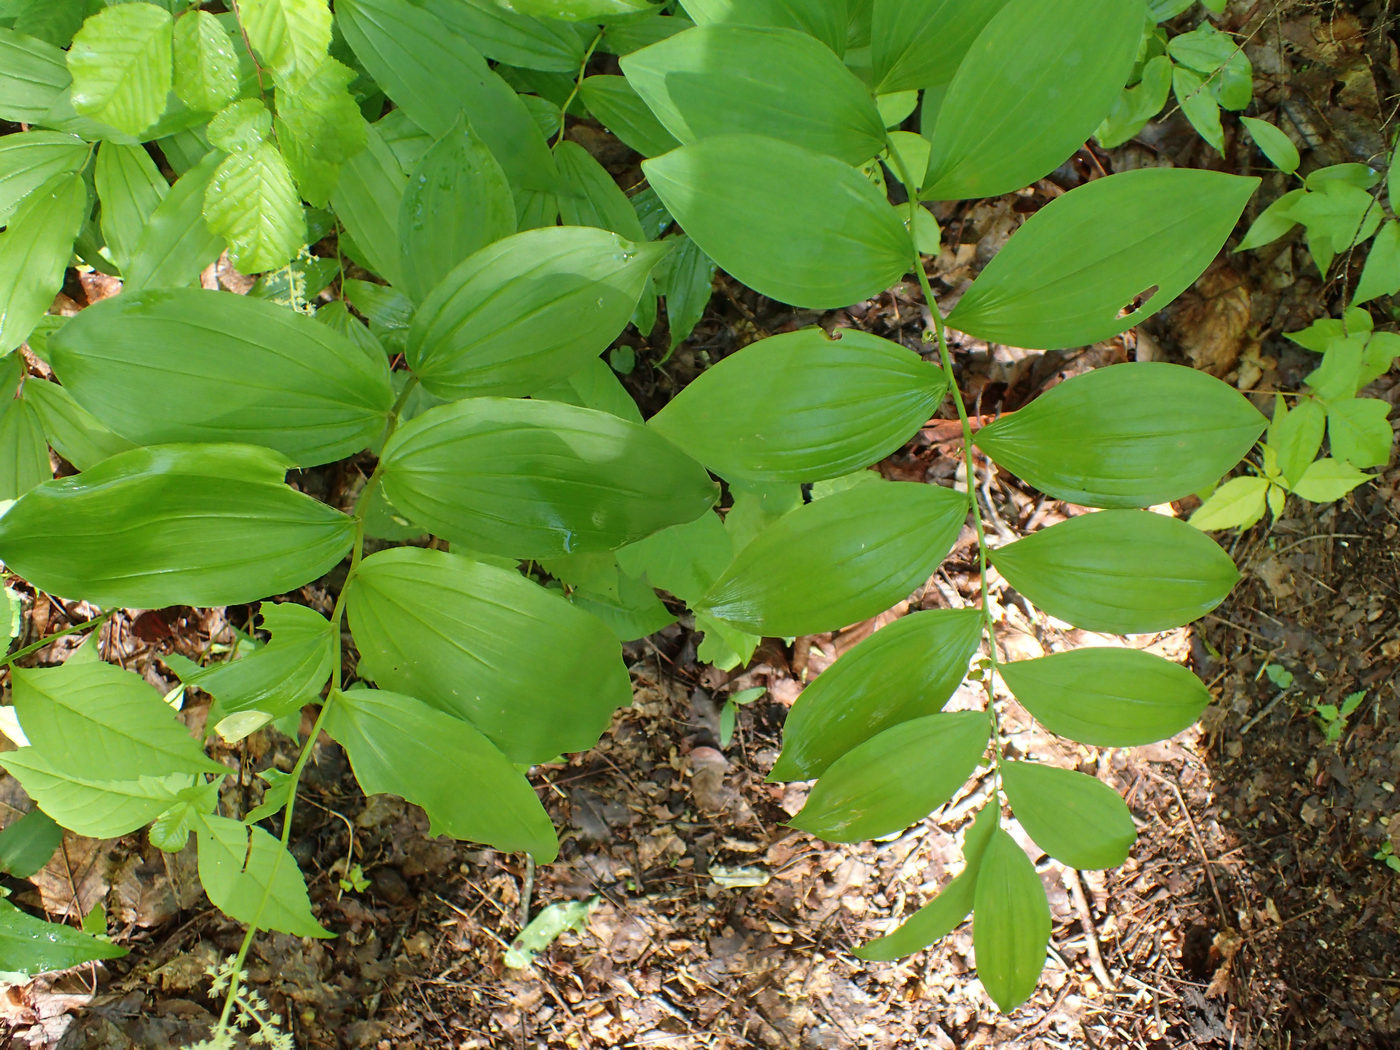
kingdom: Plantae
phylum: Tracheophyta
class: Liliopsida
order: Asparagales
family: Asparagaceae
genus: Maianthemum
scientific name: Maianthemum racemosum
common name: False spikenard
